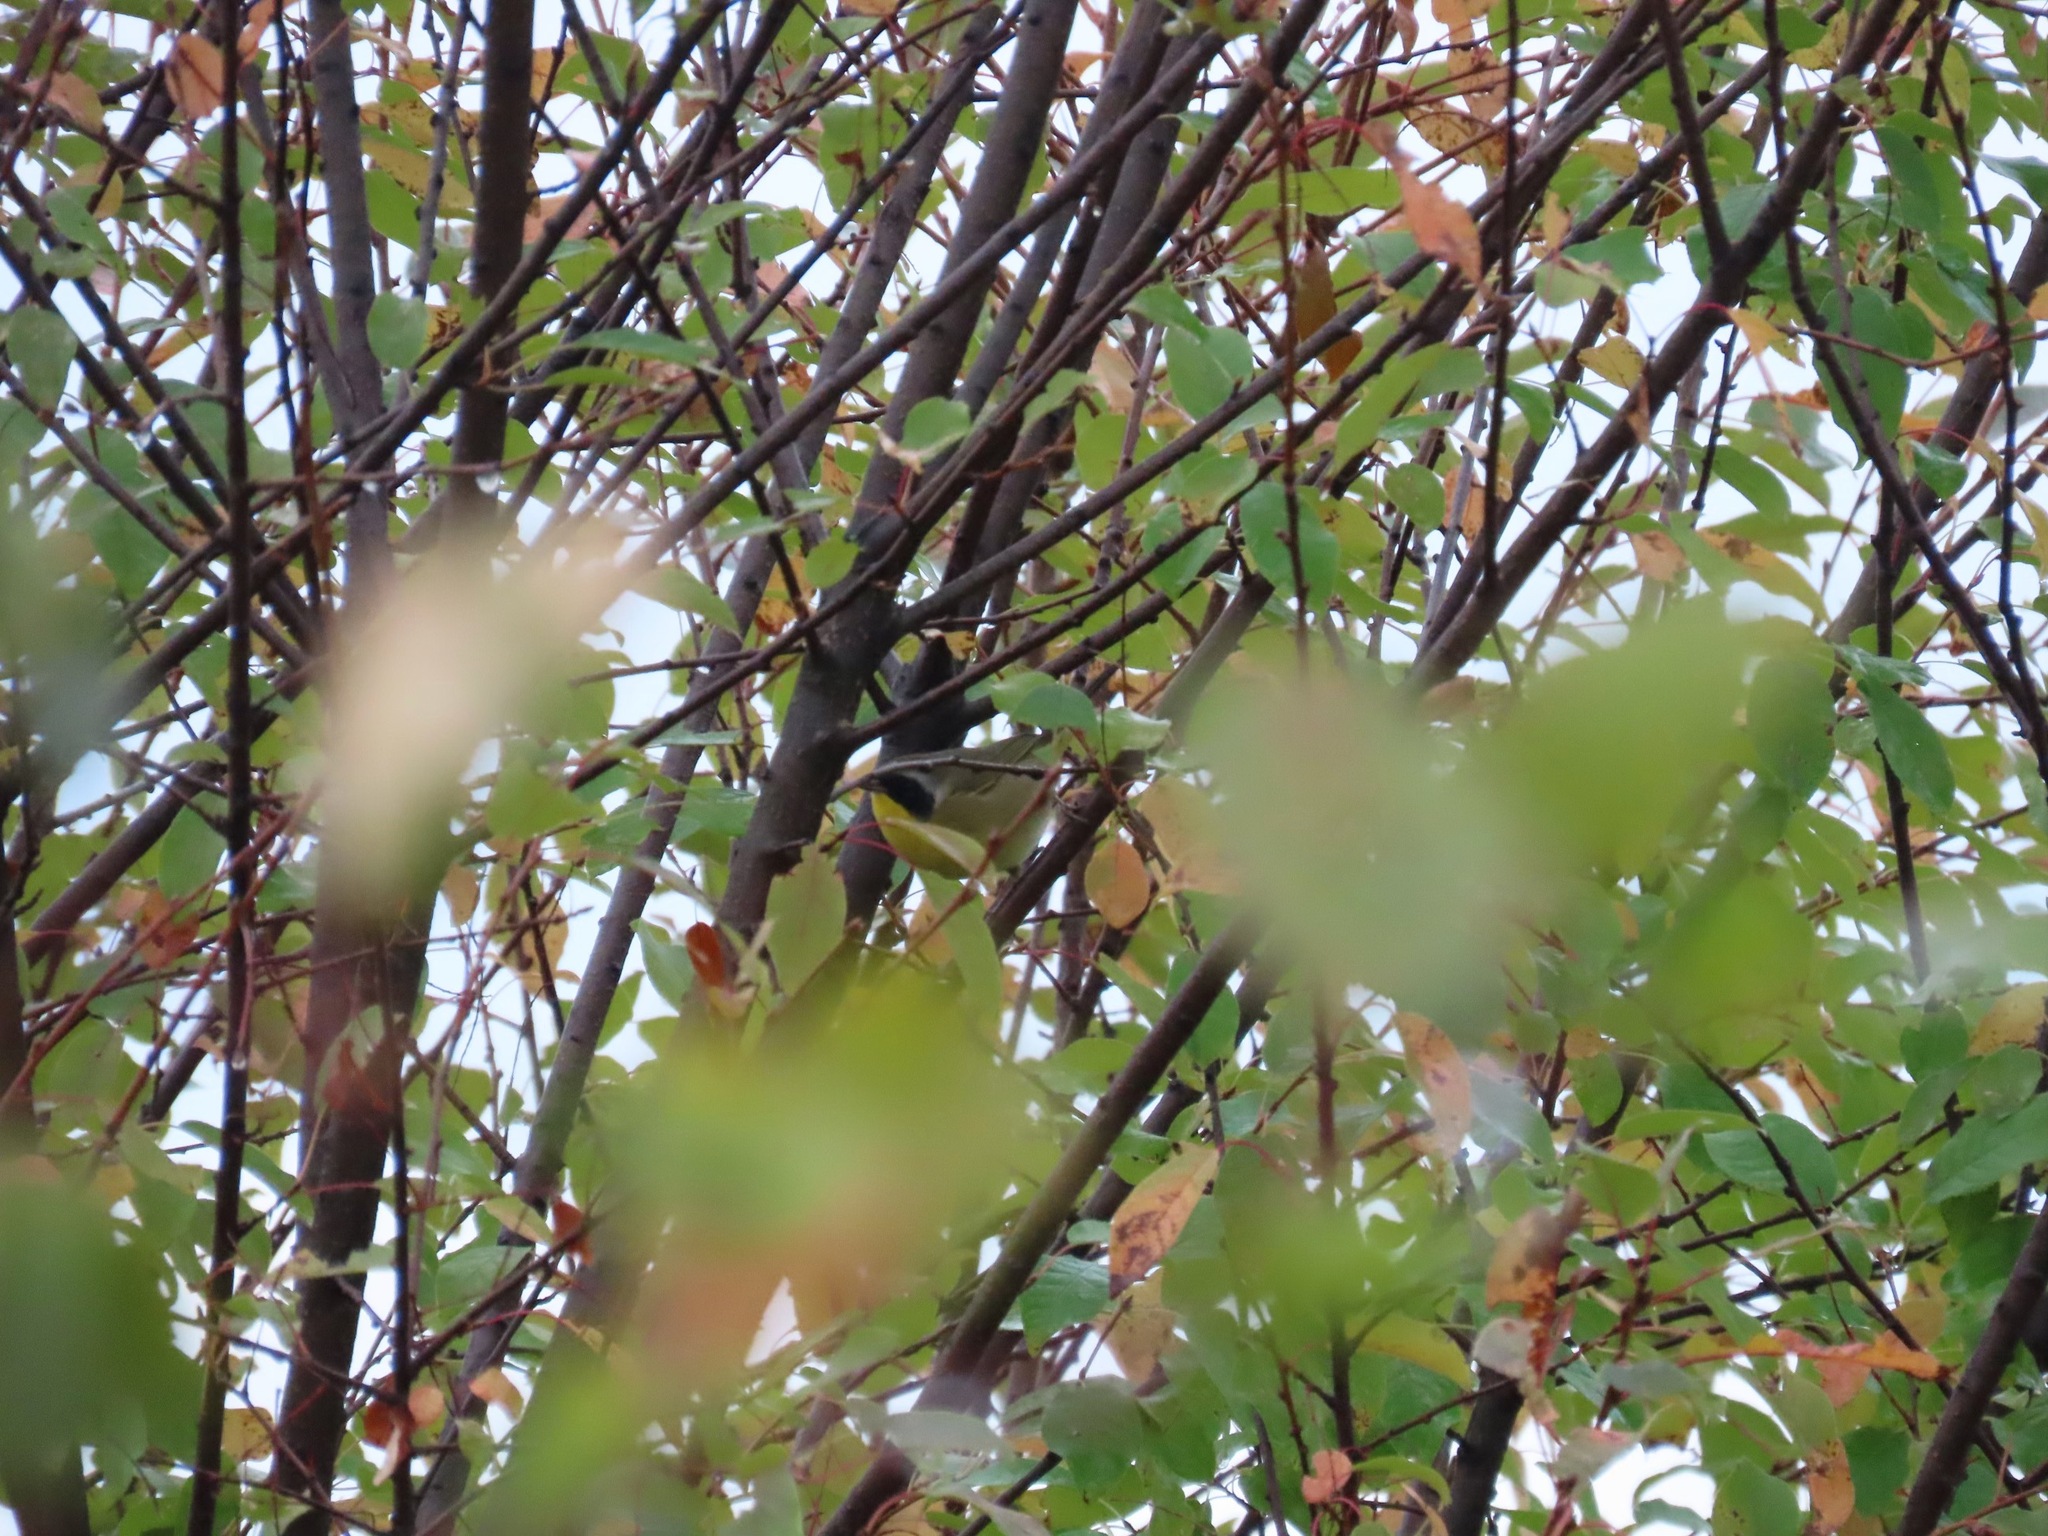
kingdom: Animalia
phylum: Chordata
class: Aves
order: Passeriformes
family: Parulidae
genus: Geothlypis
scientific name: Geothlypis trichas
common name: Common yellowthroat
